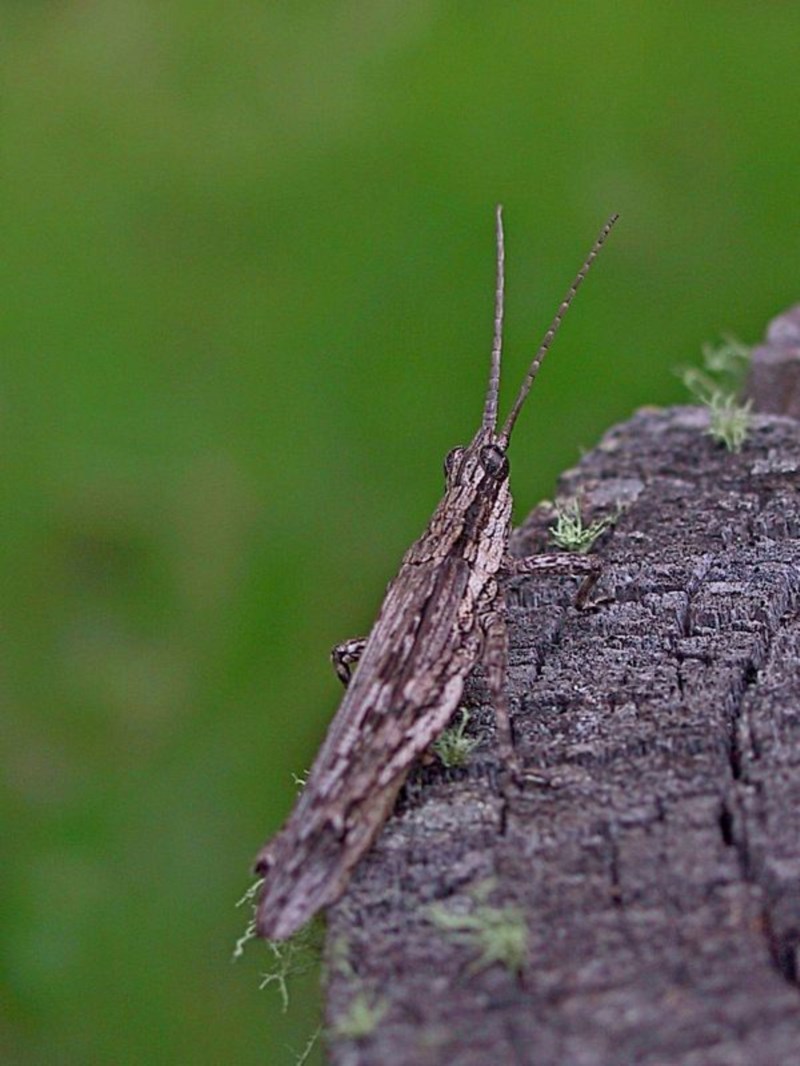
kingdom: Animalia
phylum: Arthropoda
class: Insecta
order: Orthoptera
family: Acrididae
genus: Coryphistes
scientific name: Coryphistes ruricola
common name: Bark-mimicking grasshopper
